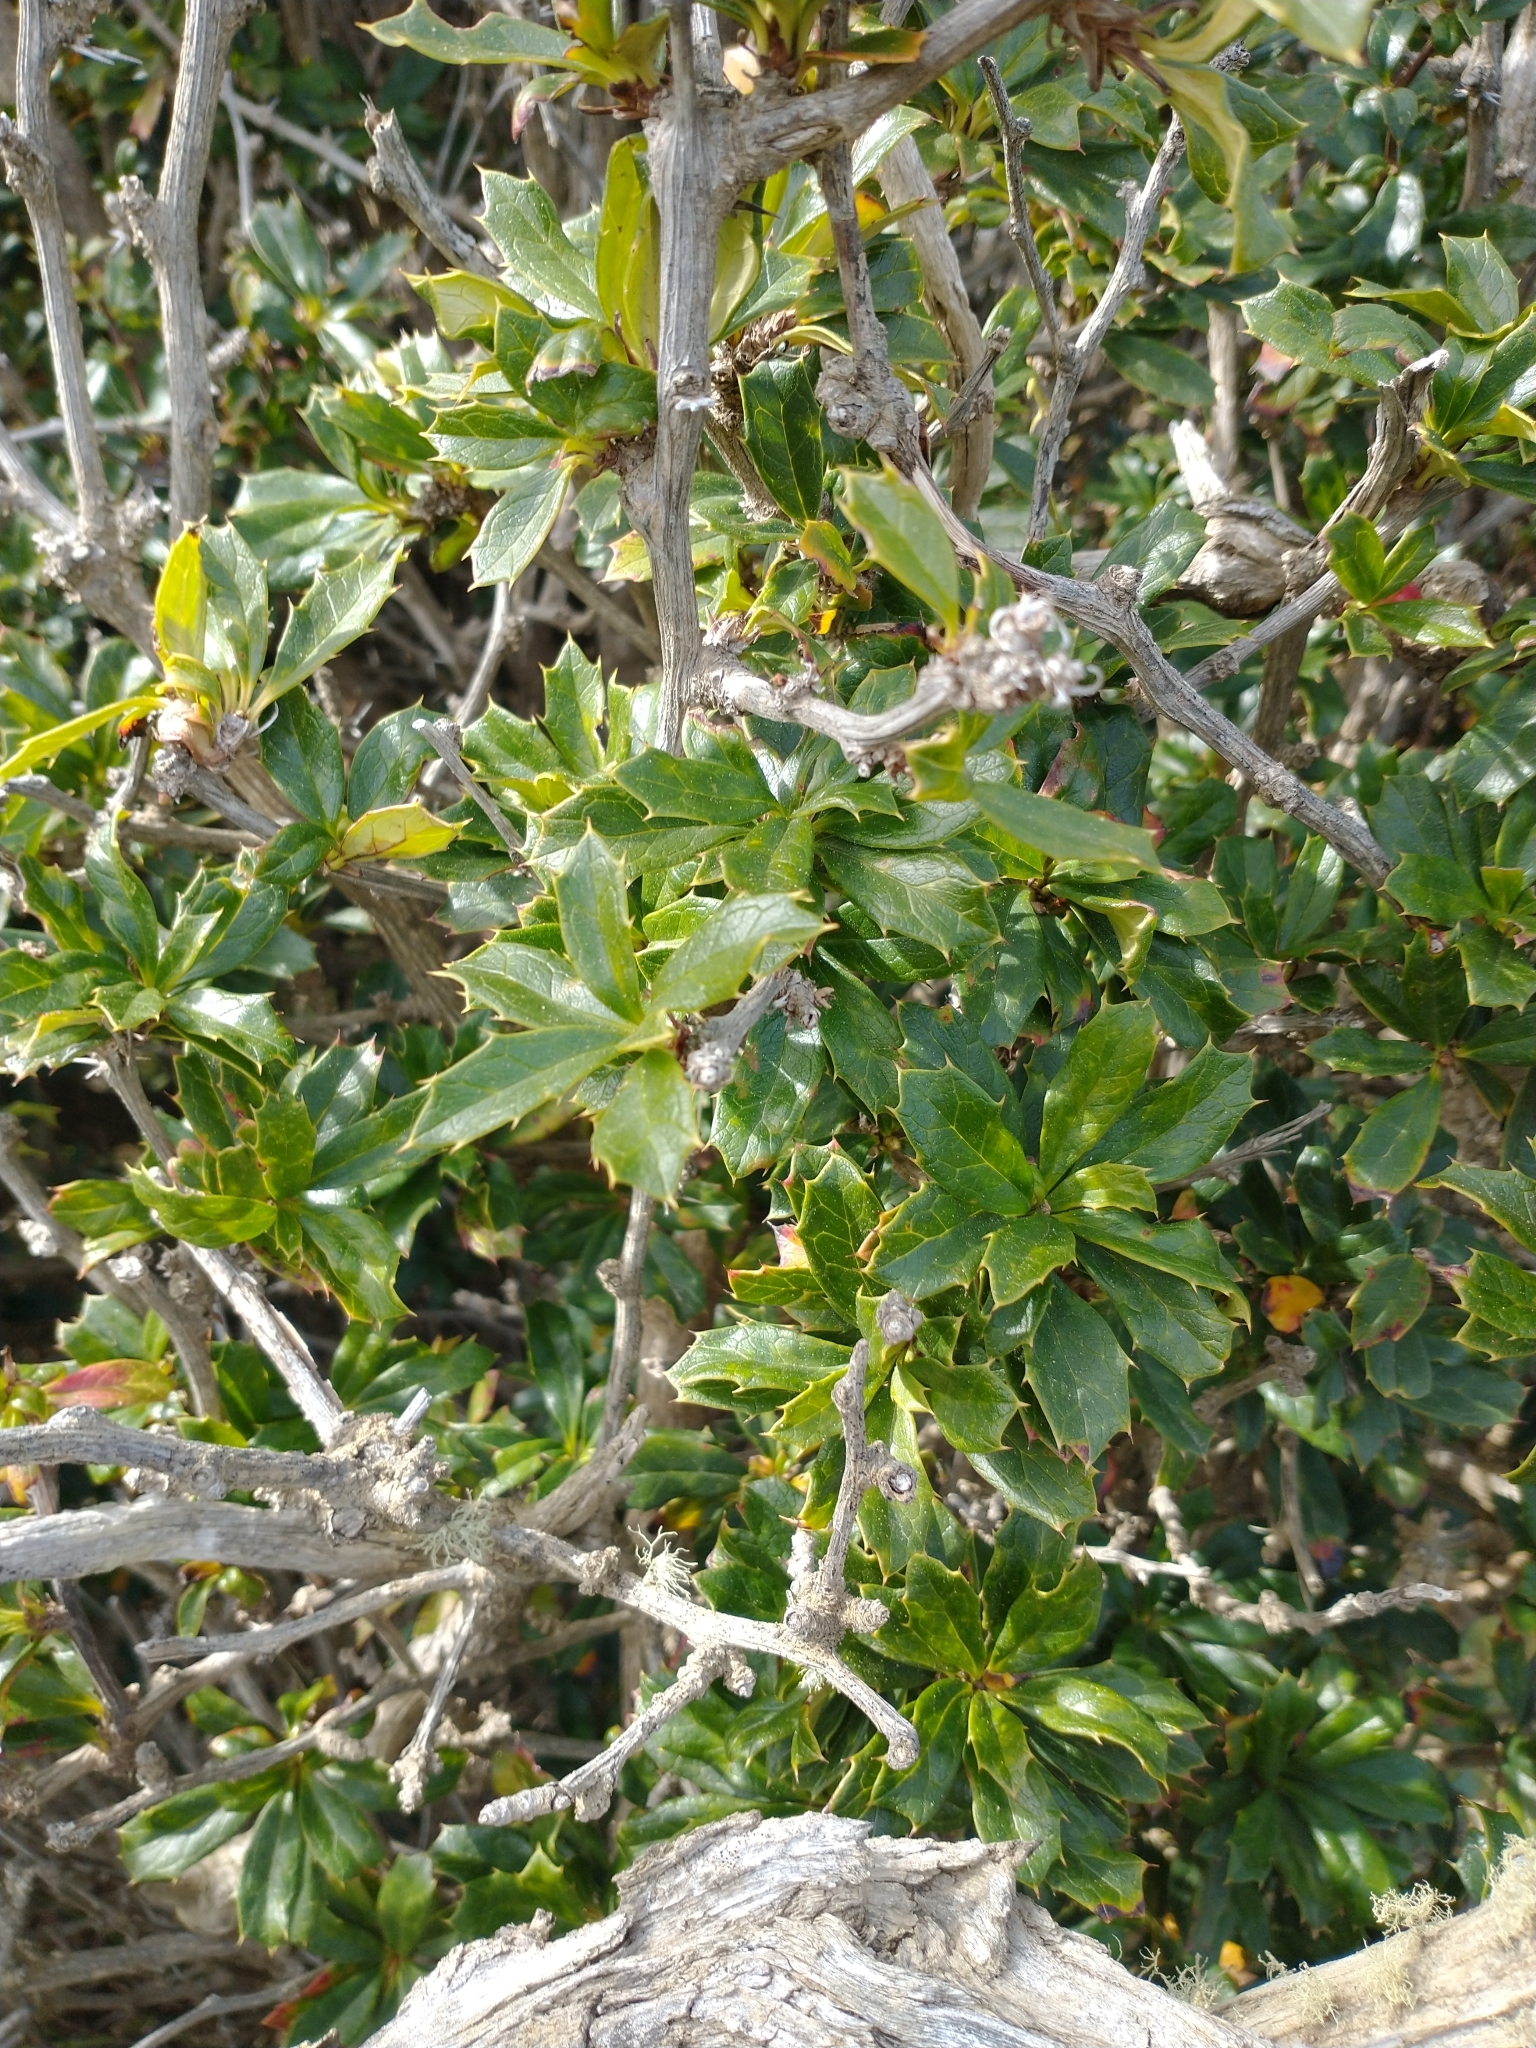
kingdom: Plantae
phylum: Tracheophyta
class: Magnoliopsida
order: Ranunculales
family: Berberidaceae
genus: Berberis
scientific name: Berberis ilicifolia
